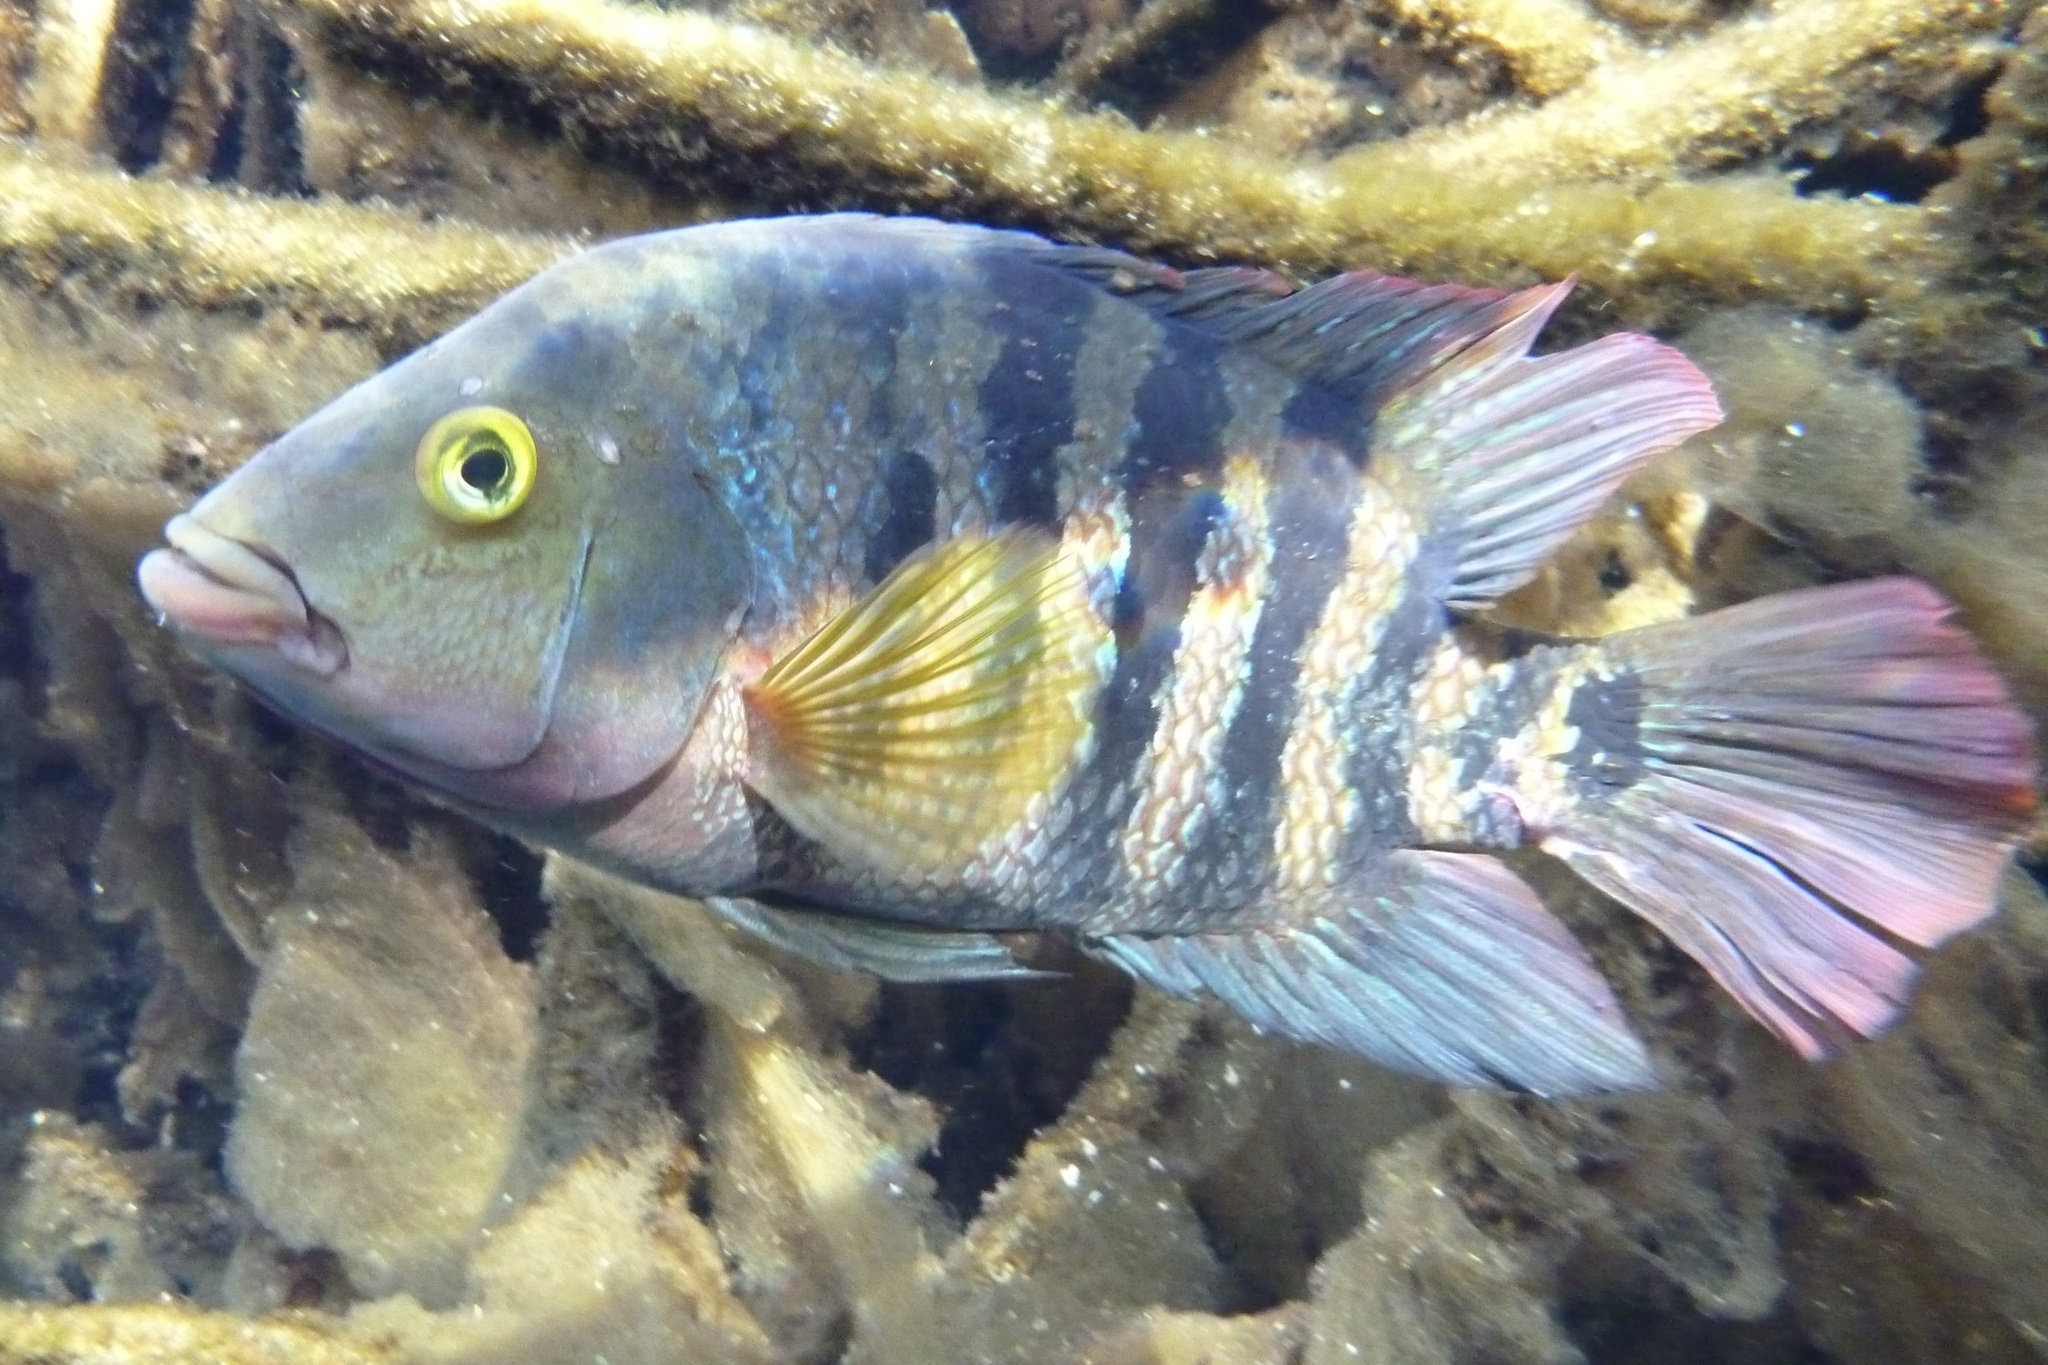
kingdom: Animalia
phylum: Chordata
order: Perciformes
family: Cichlidae
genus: Mayaheros
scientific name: Mayaheros urophthalmus
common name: Mayan cichlid
